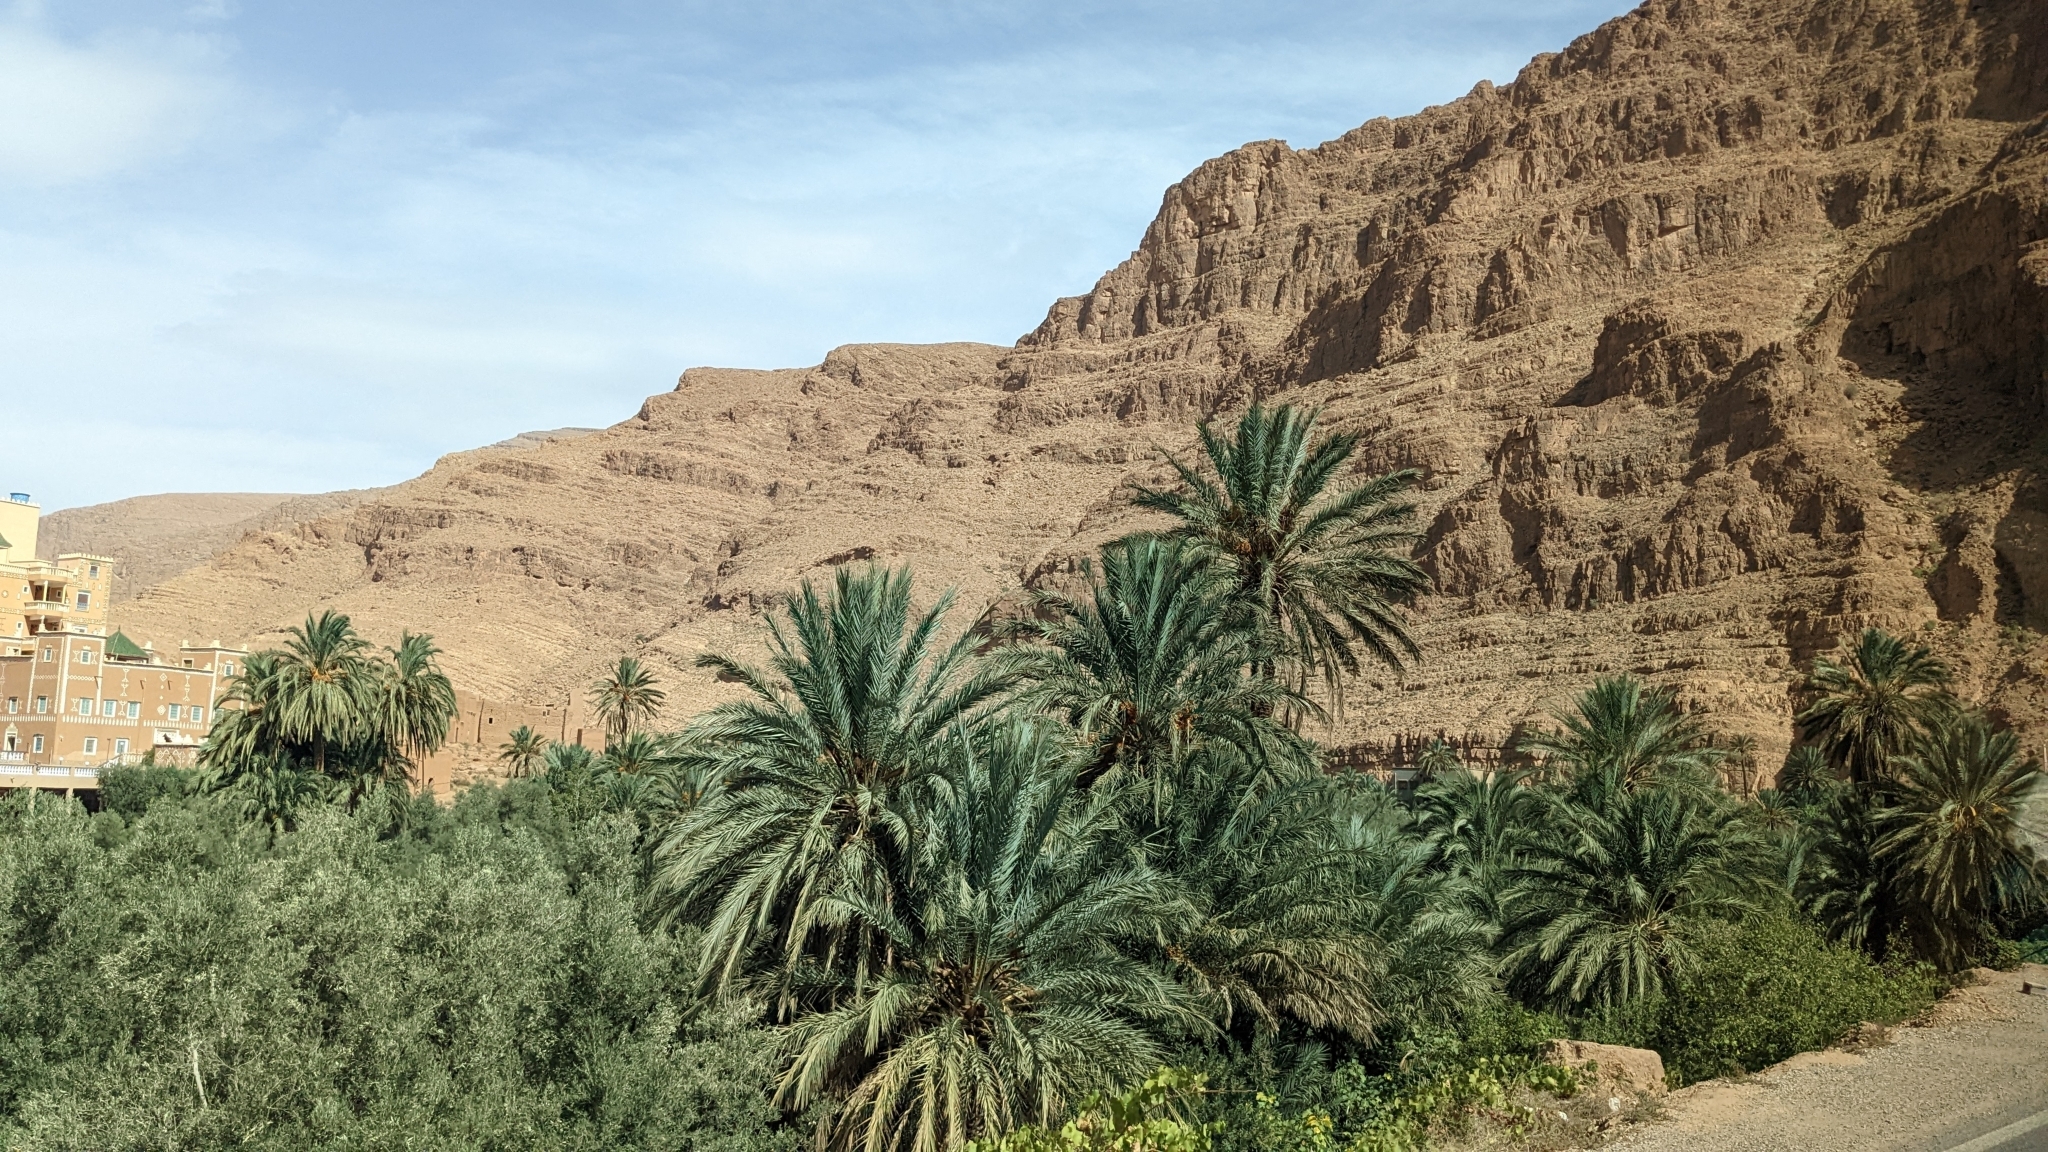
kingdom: Plantae
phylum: Tracheophyta
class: Liliopsida
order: Arecales
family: Arecaceae
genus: Phoenix
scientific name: Phoenix dactylifera
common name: Date palm
